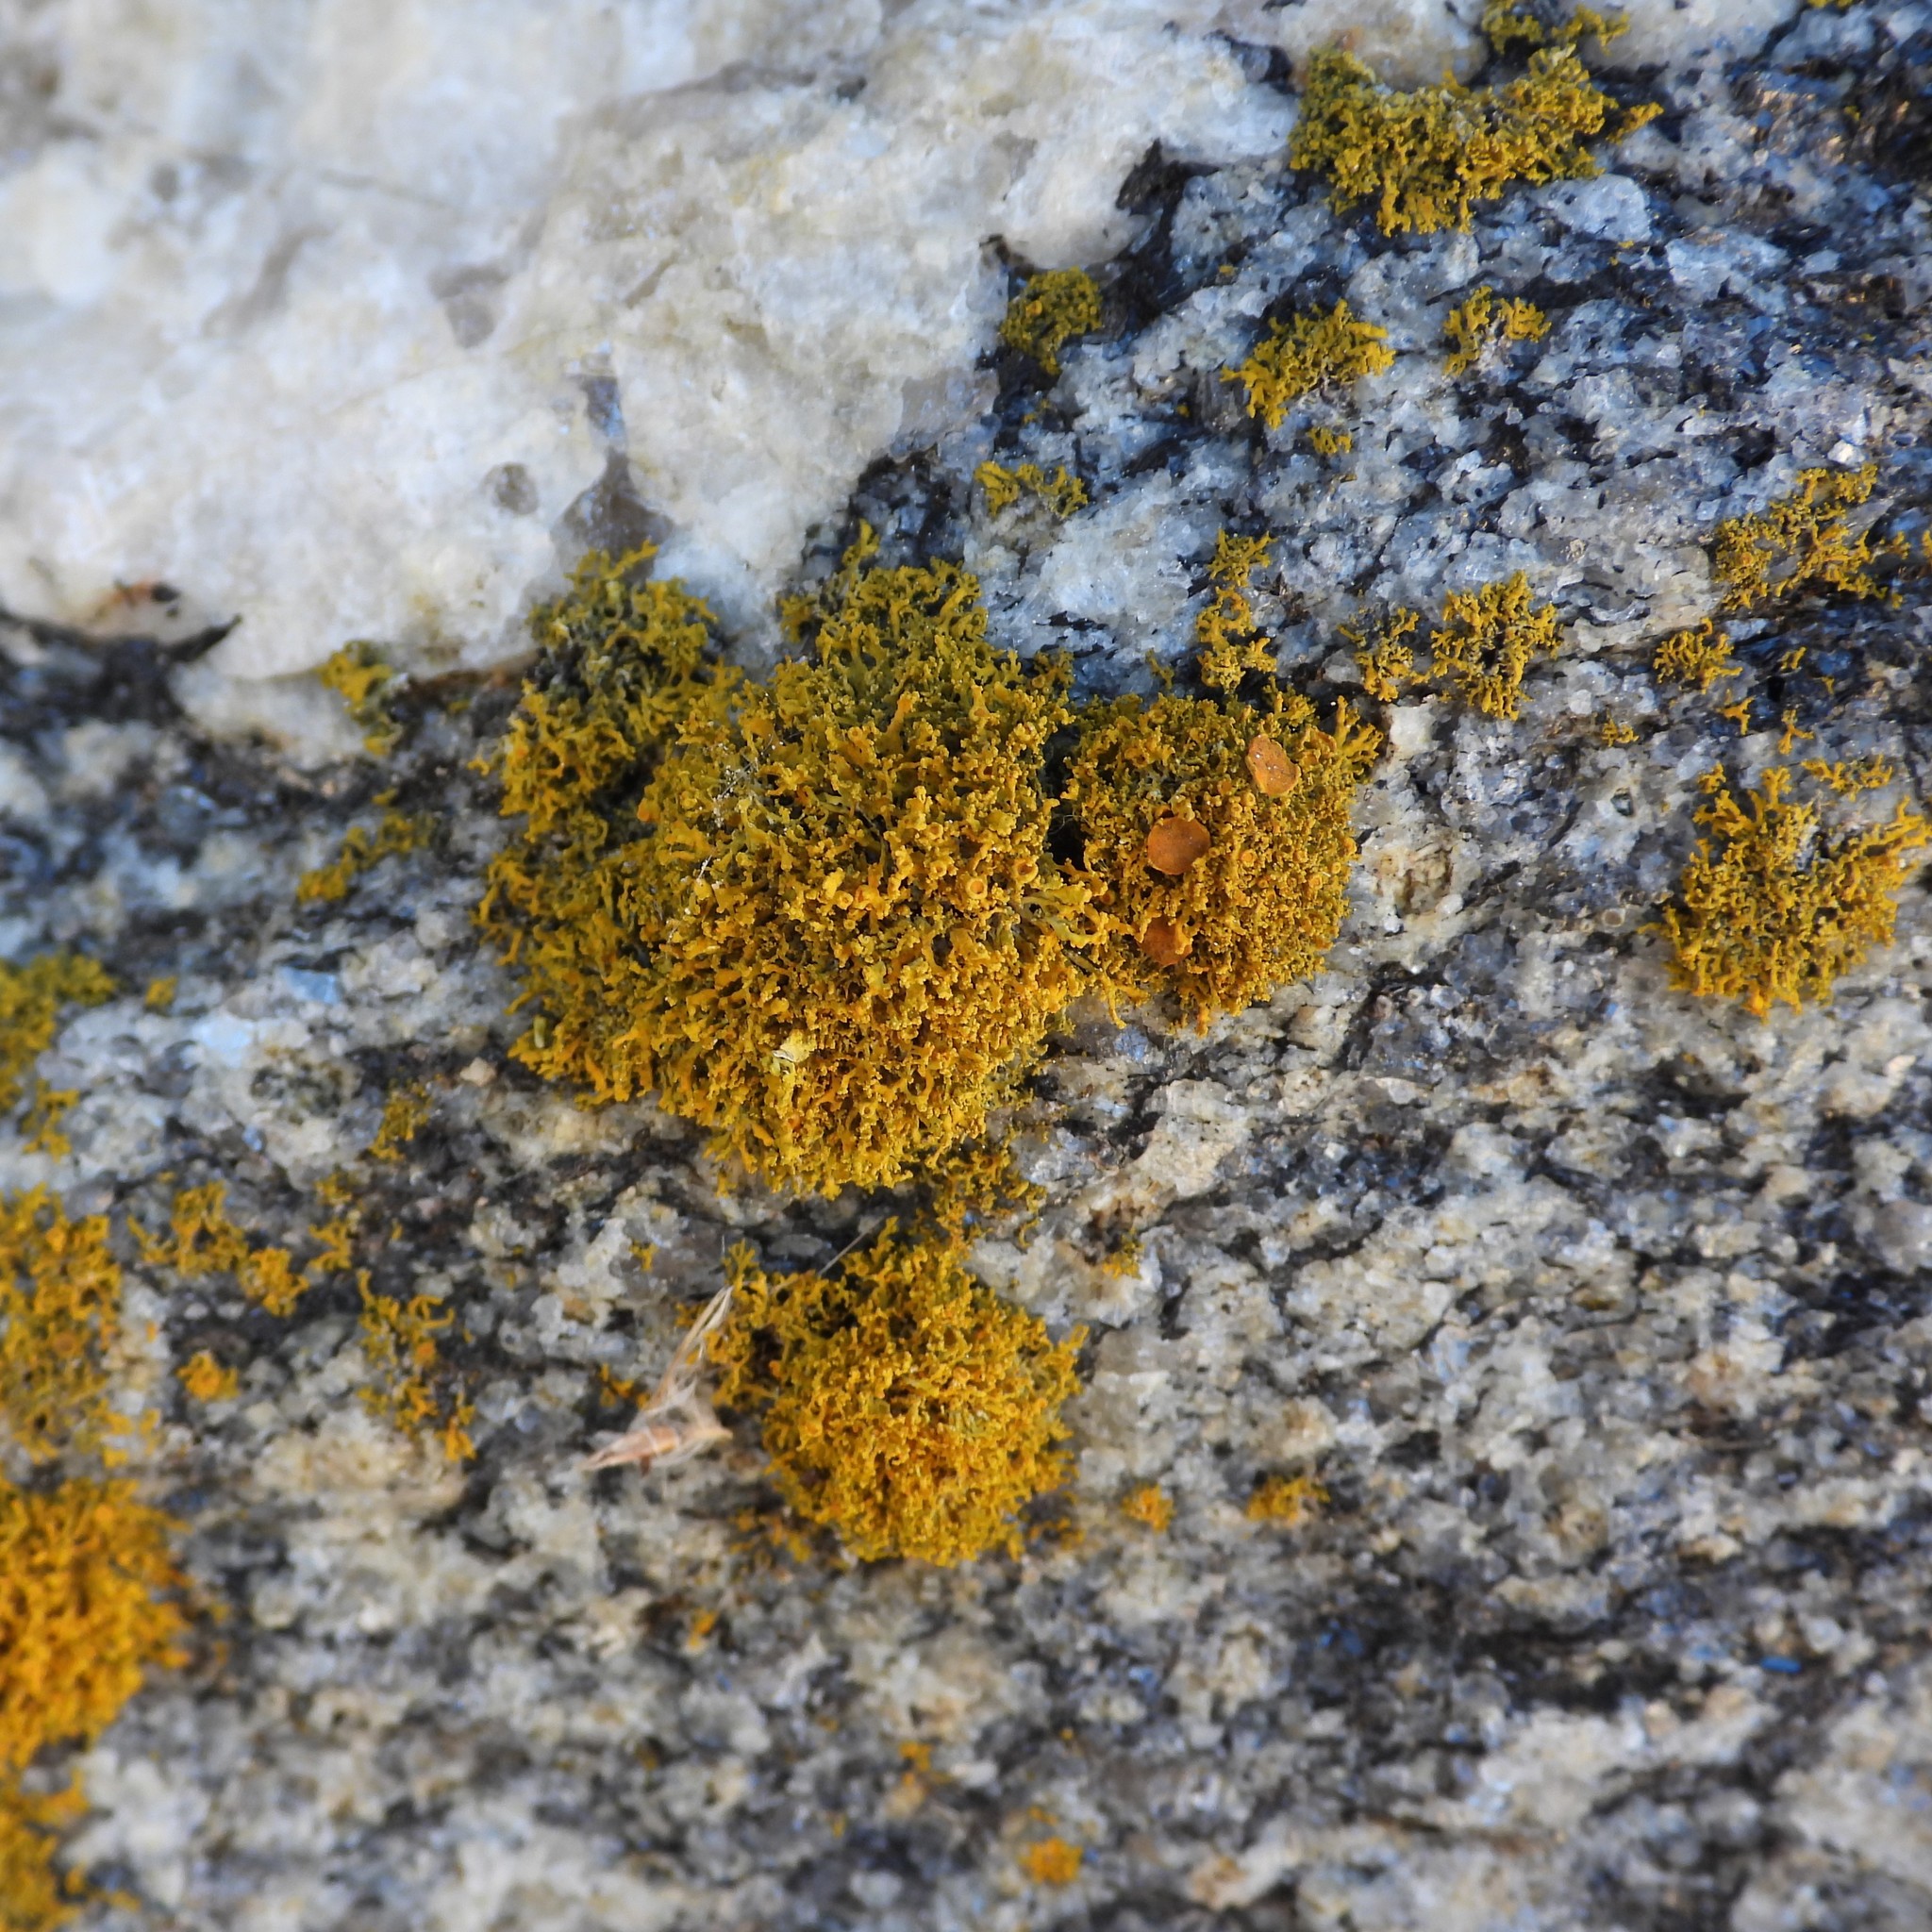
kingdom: Fungi
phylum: Ascomycota
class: Lecanoromycetes
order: Teloschistales
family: Teloschistaceae
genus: Polycauliona
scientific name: Polycauliona candelaria
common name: Shrubby sunburst lichen
